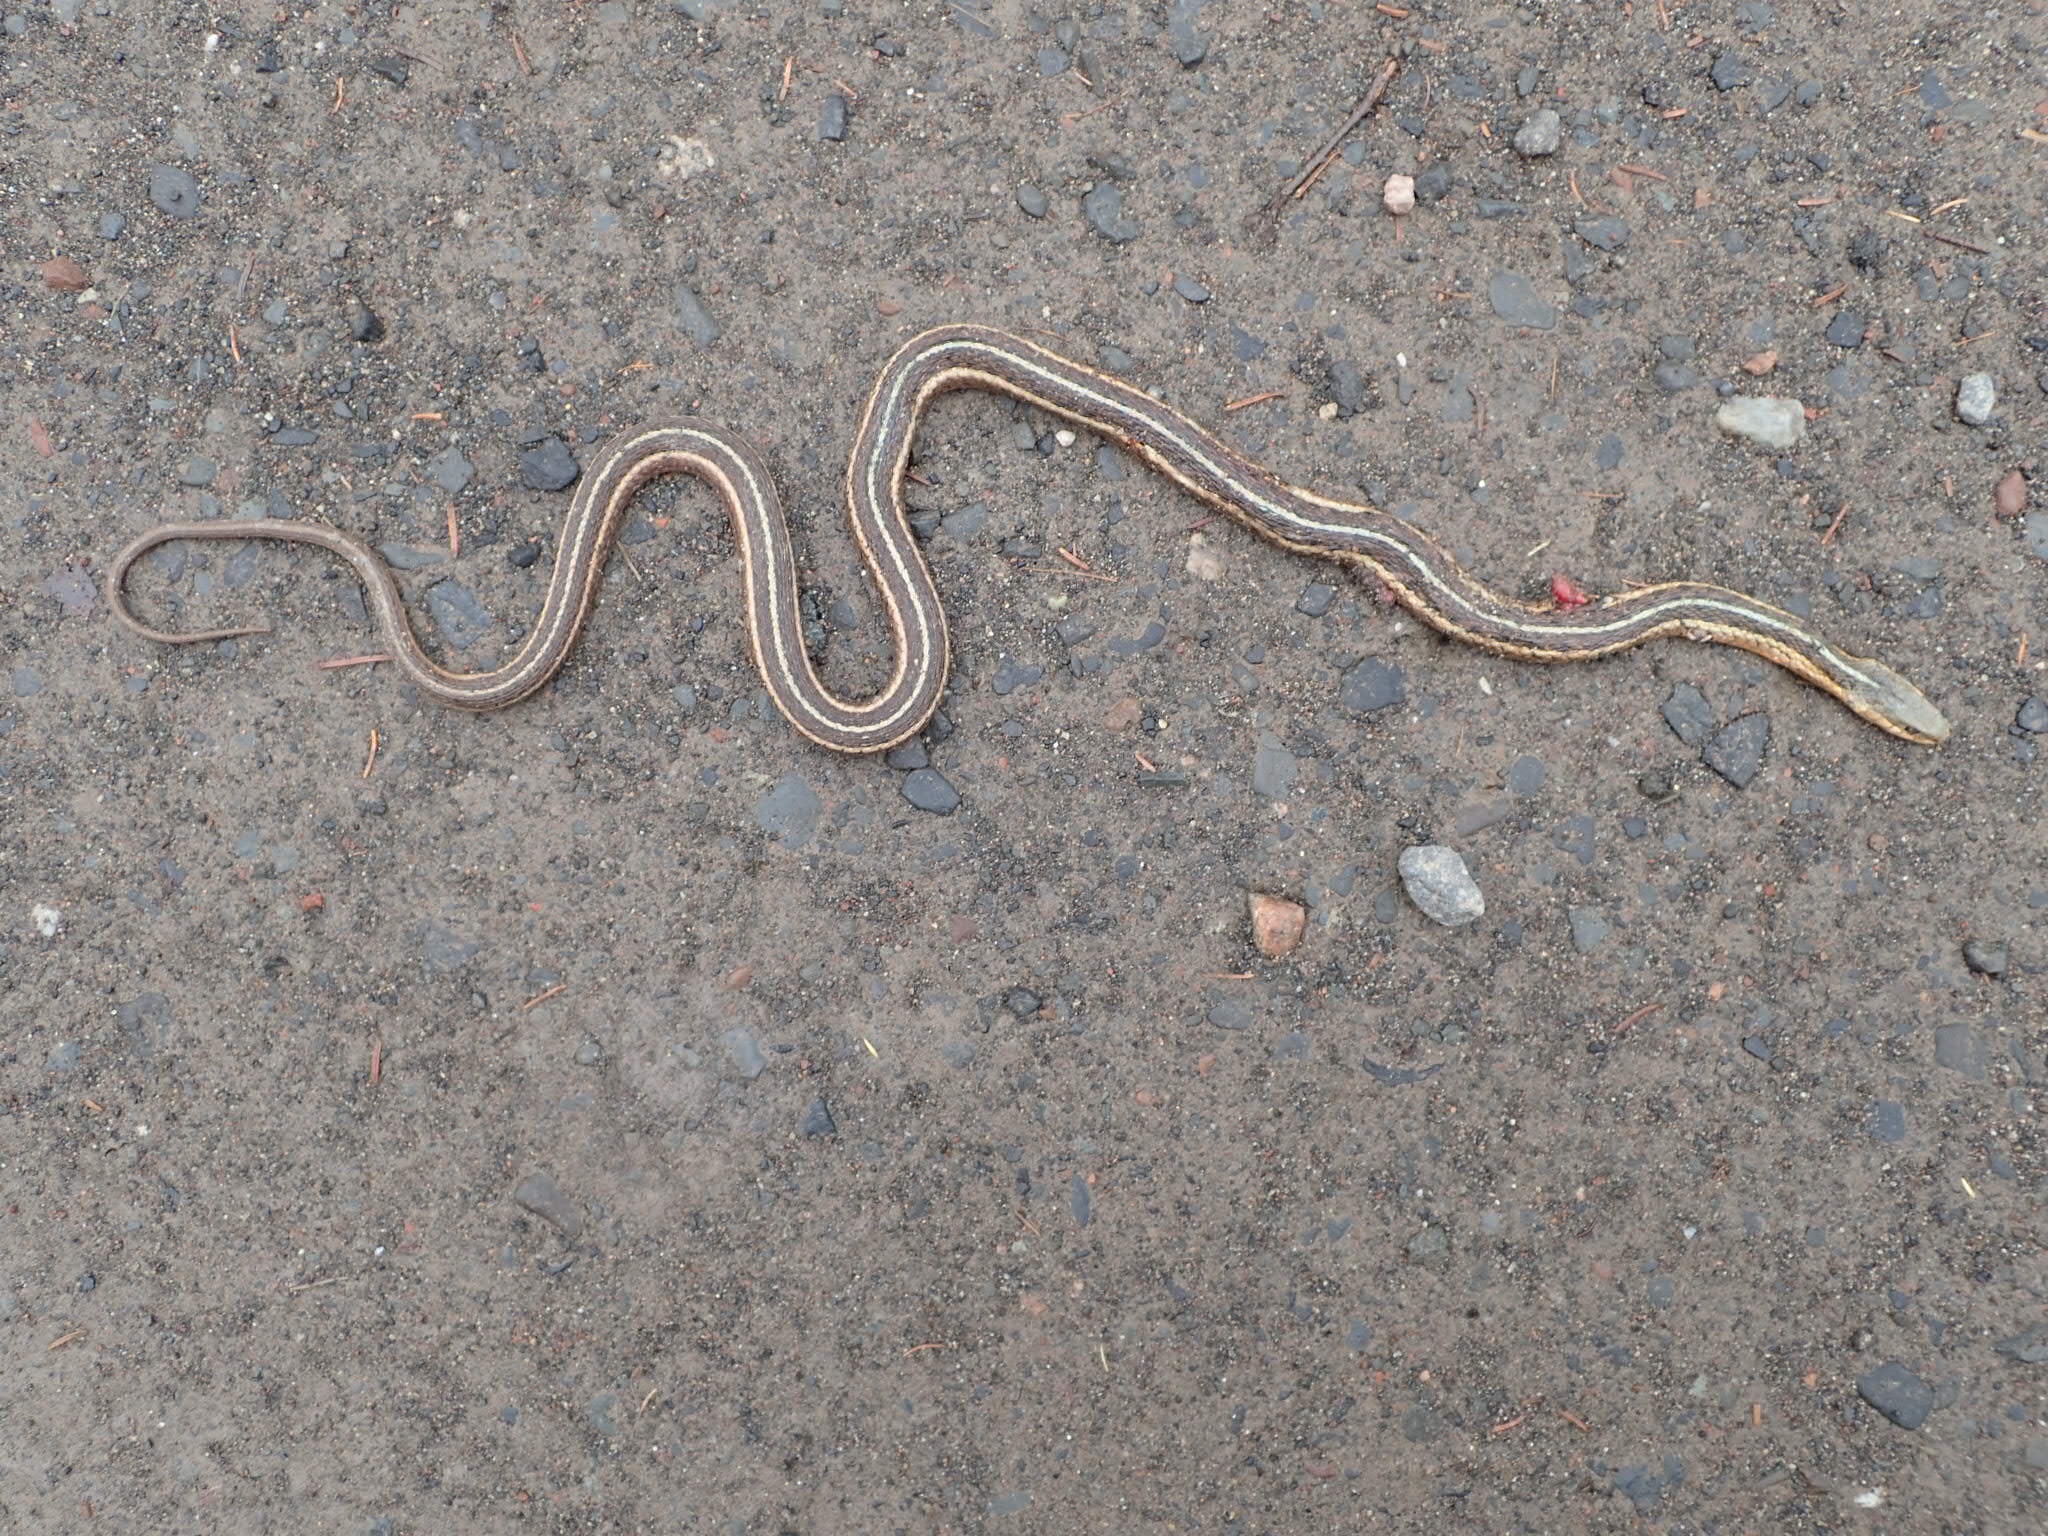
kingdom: Animalia
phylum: Chordata
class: Squamata
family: Colubridae
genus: Thamnophis
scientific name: Thamnophis sirtalis
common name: Common garter snake
